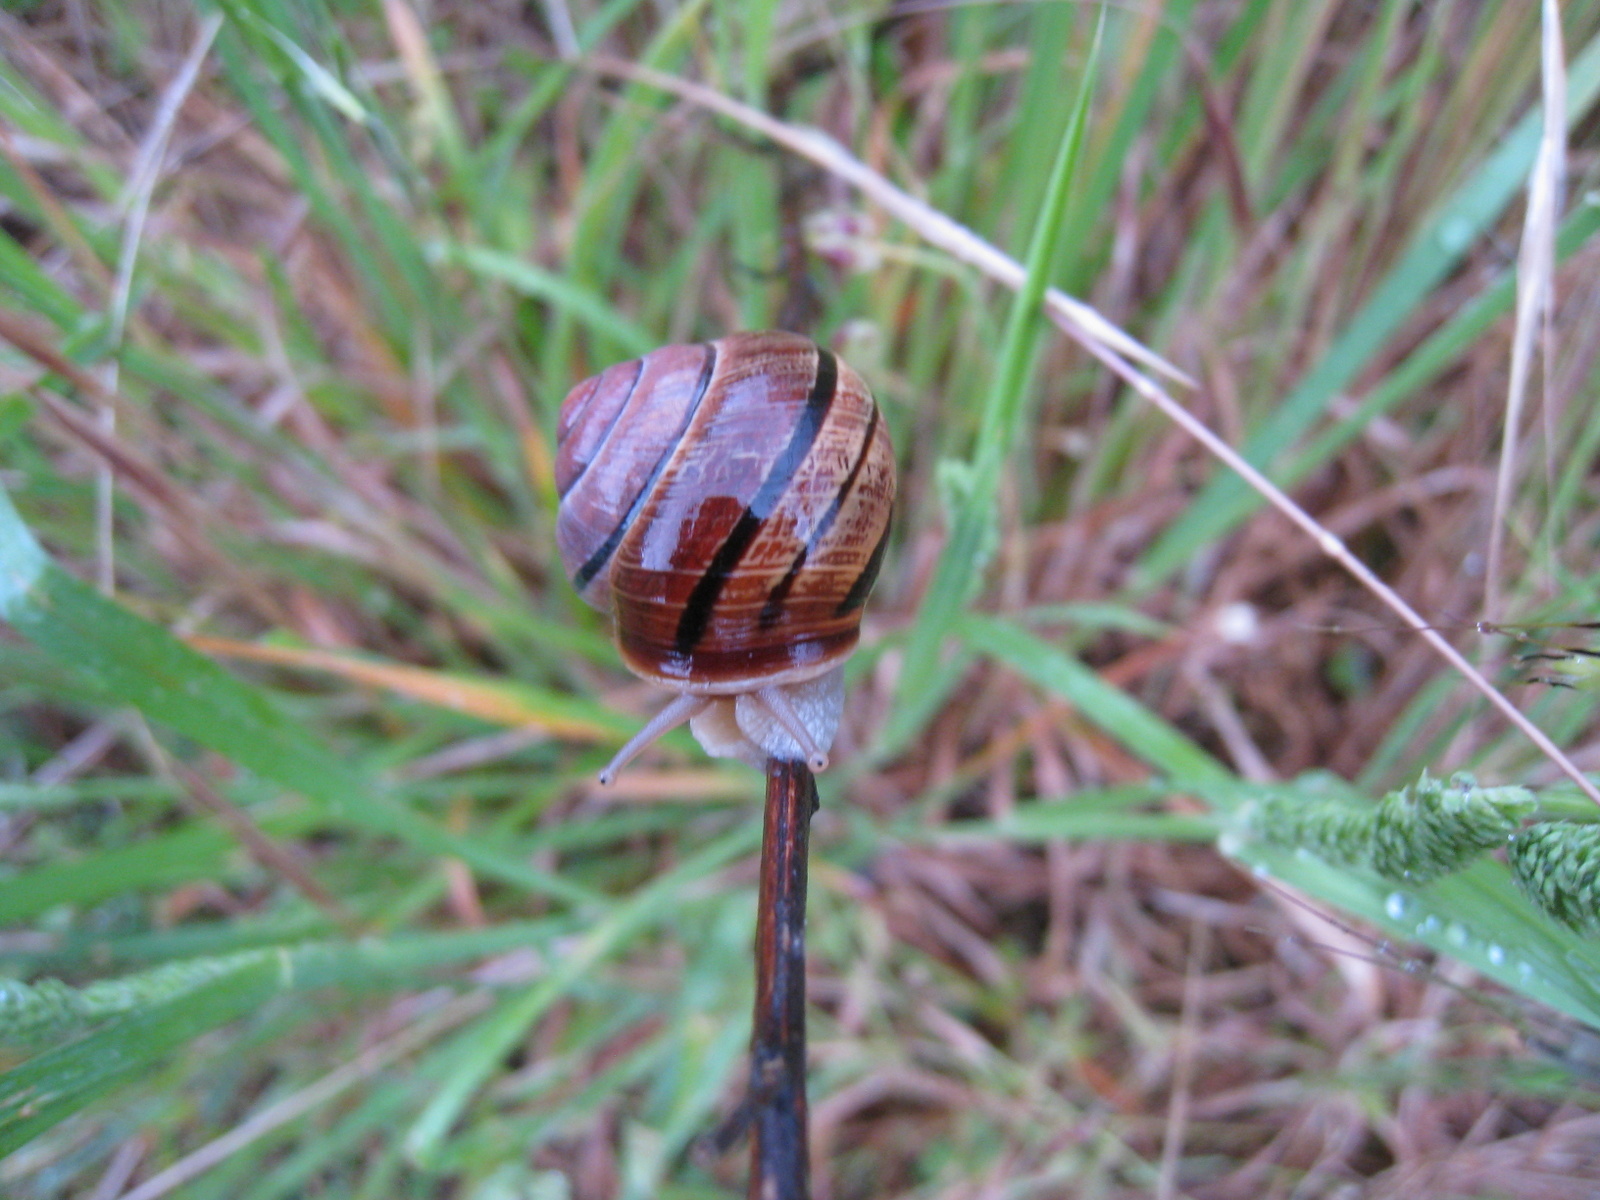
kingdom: Animalia
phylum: Mollusca
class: Gastropoda
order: Stylommatophora
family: Helicidae
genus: Cepaea
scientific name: Cepaea nemoralis
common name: Grovesnail
